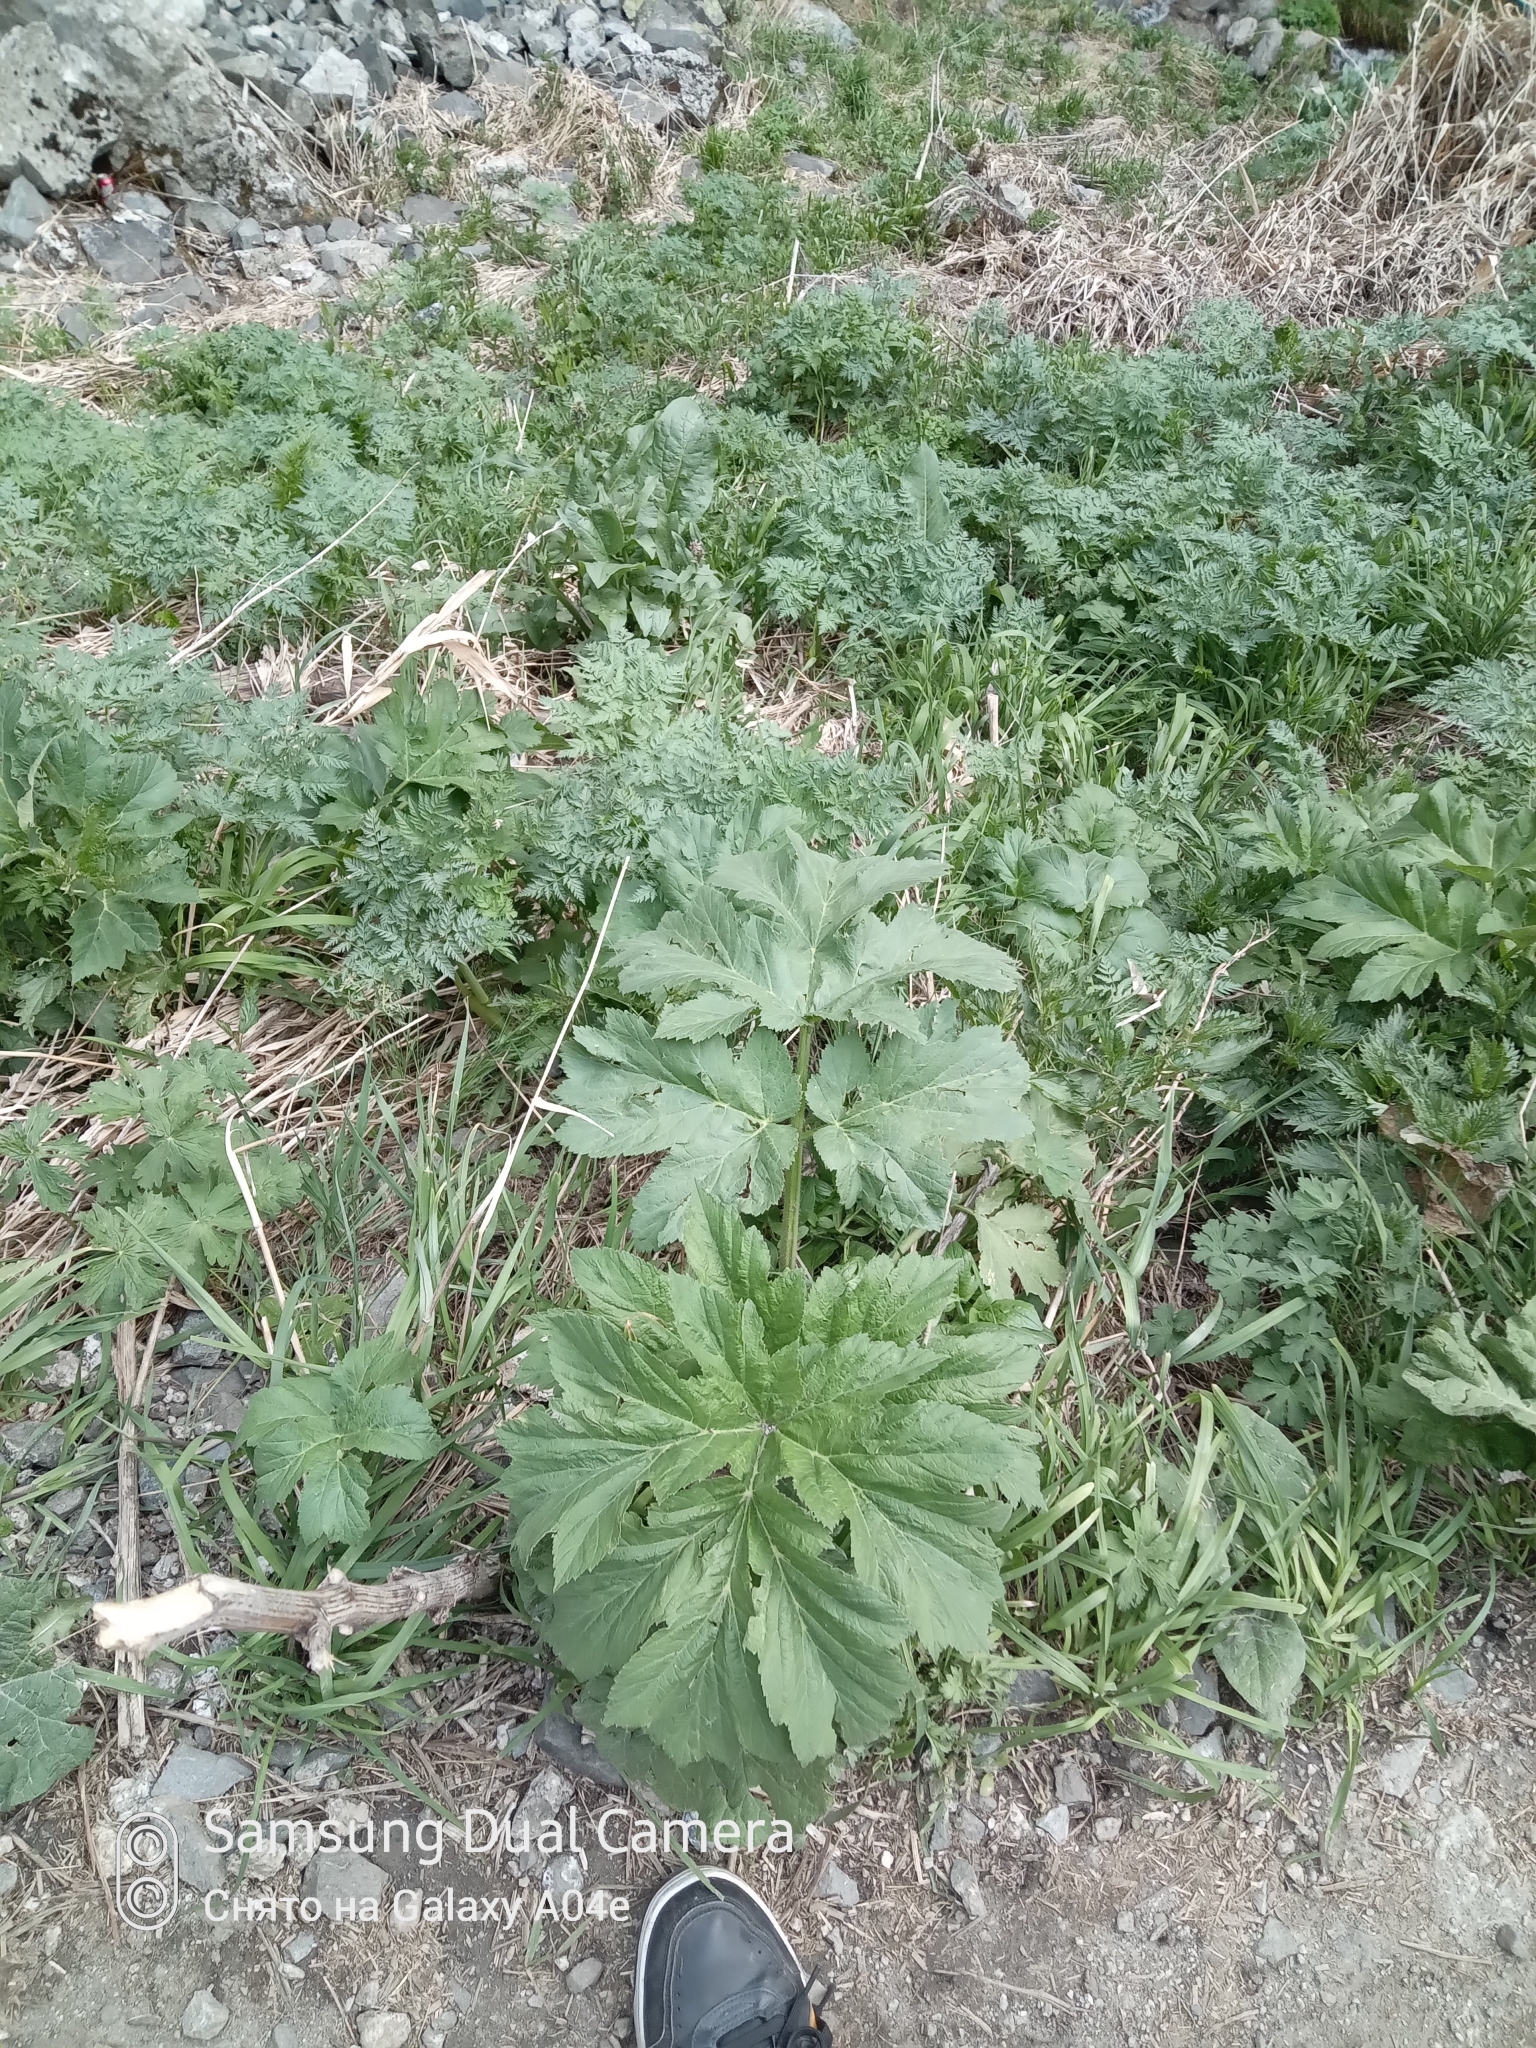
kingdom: Plantae
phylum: Tracheophyta
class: Magnoliopsida
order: Apiales
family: Apiaceae
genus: Heracleum
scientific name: Heracleum dissectum
